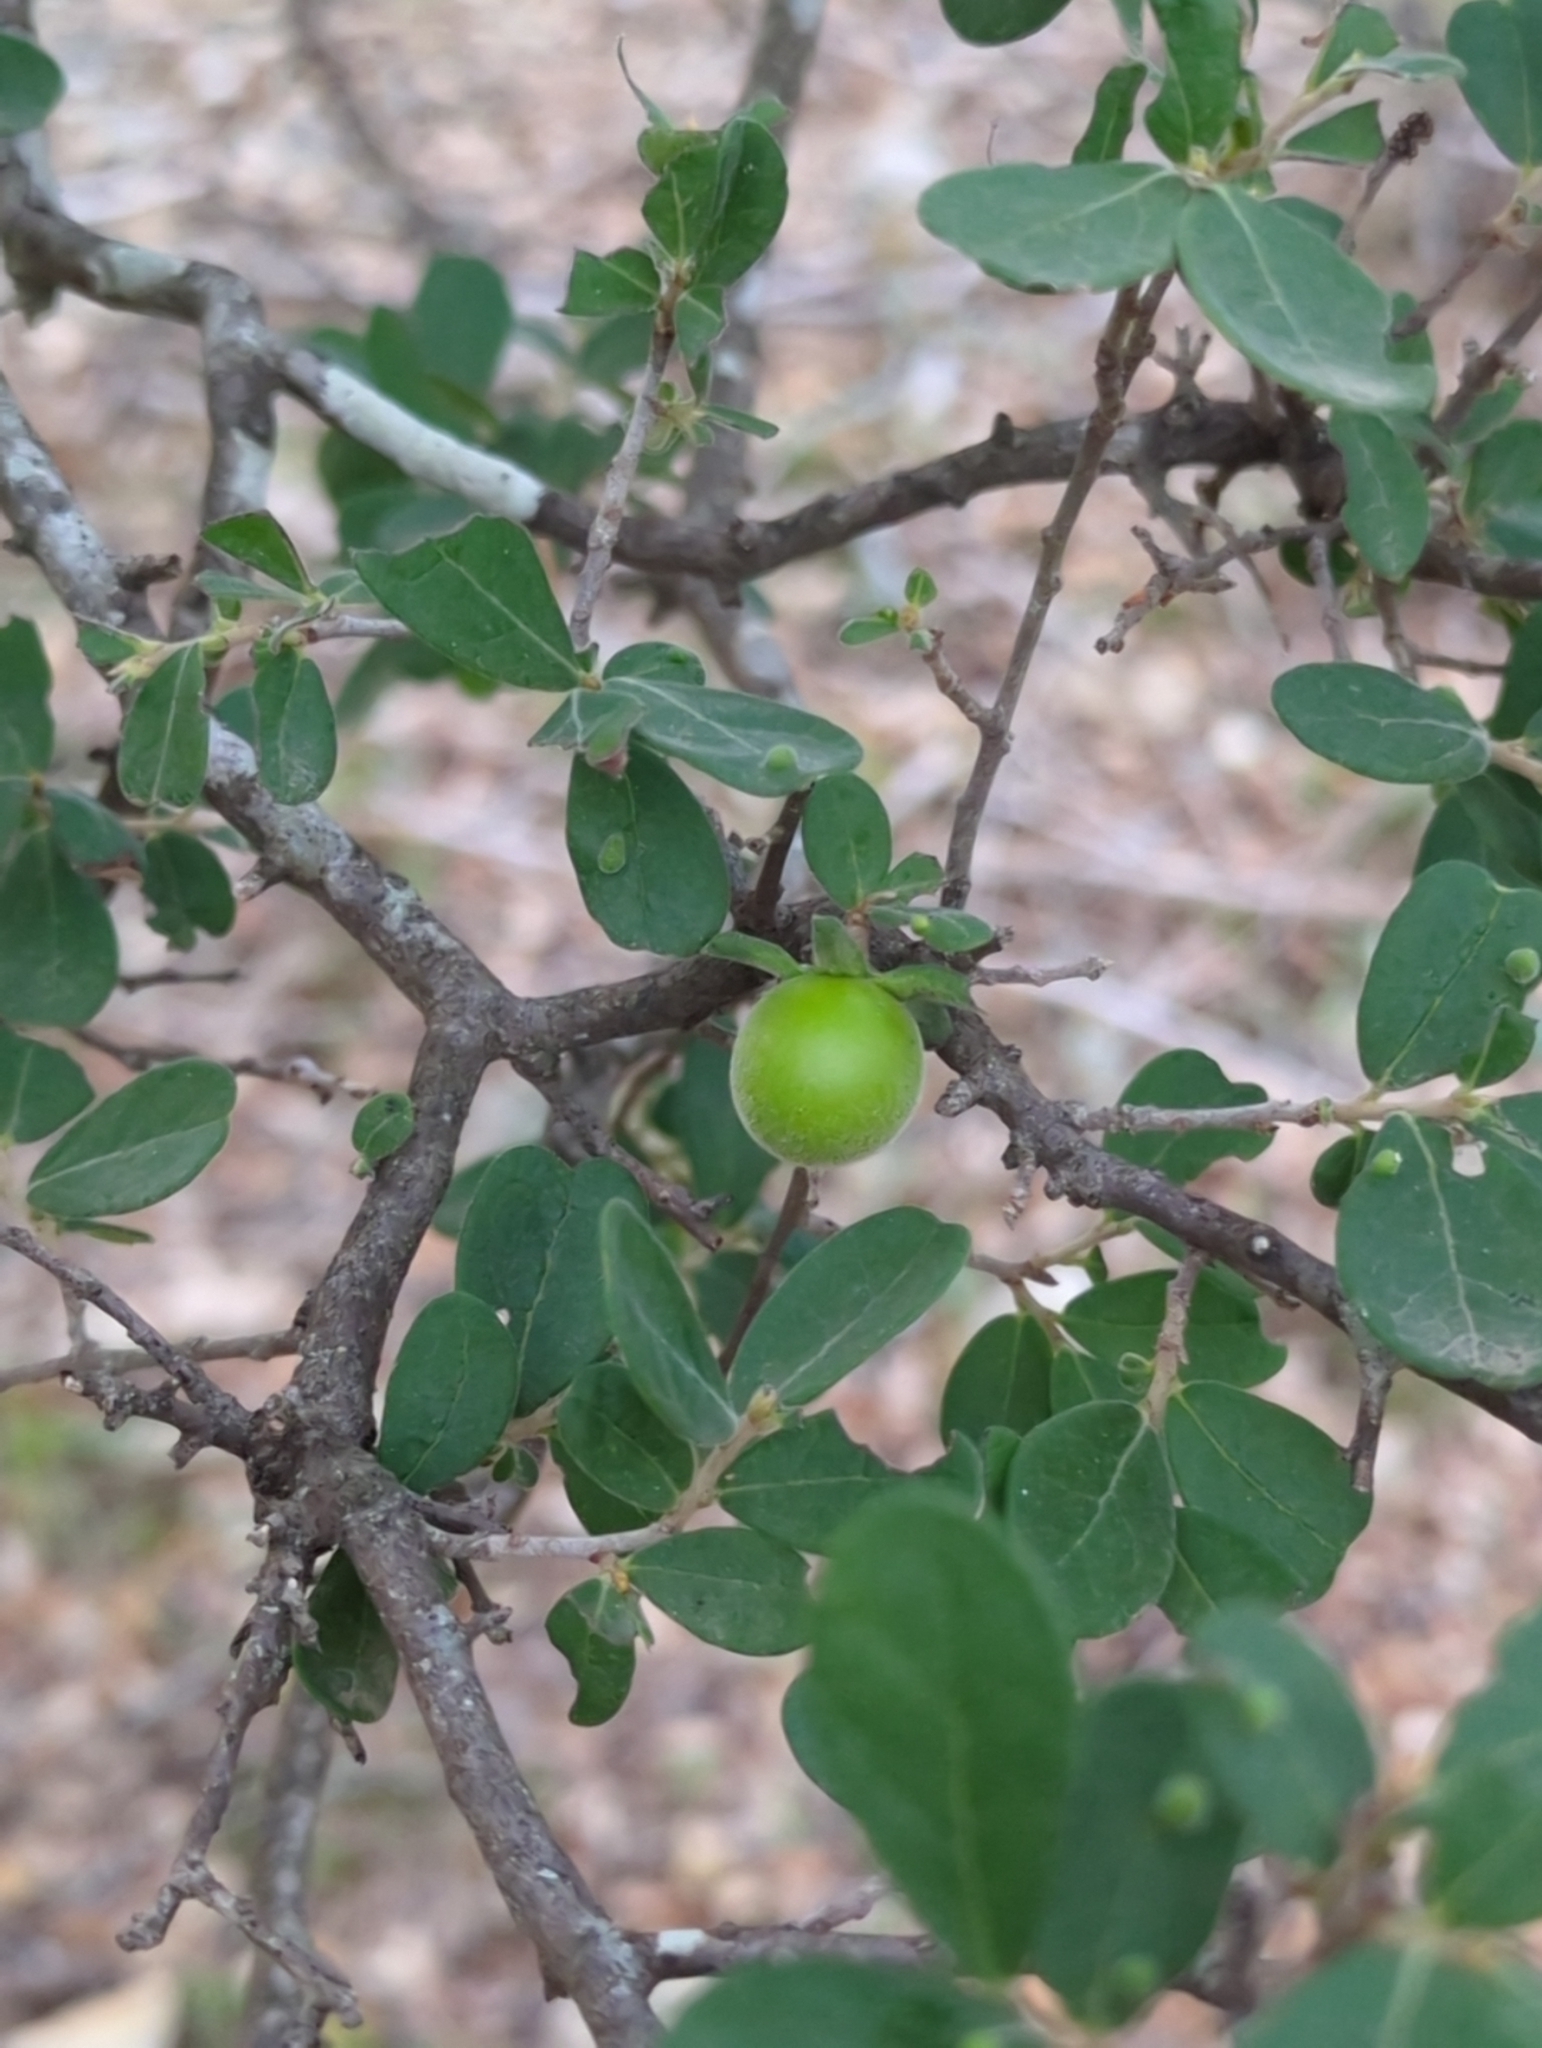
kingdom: Plantae
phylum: Tracheophyta
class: Magnoliopsida
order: Ericales
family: Ebenaceae
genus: Diospyros
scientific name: Diospyros texana
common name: Texas persimmon
